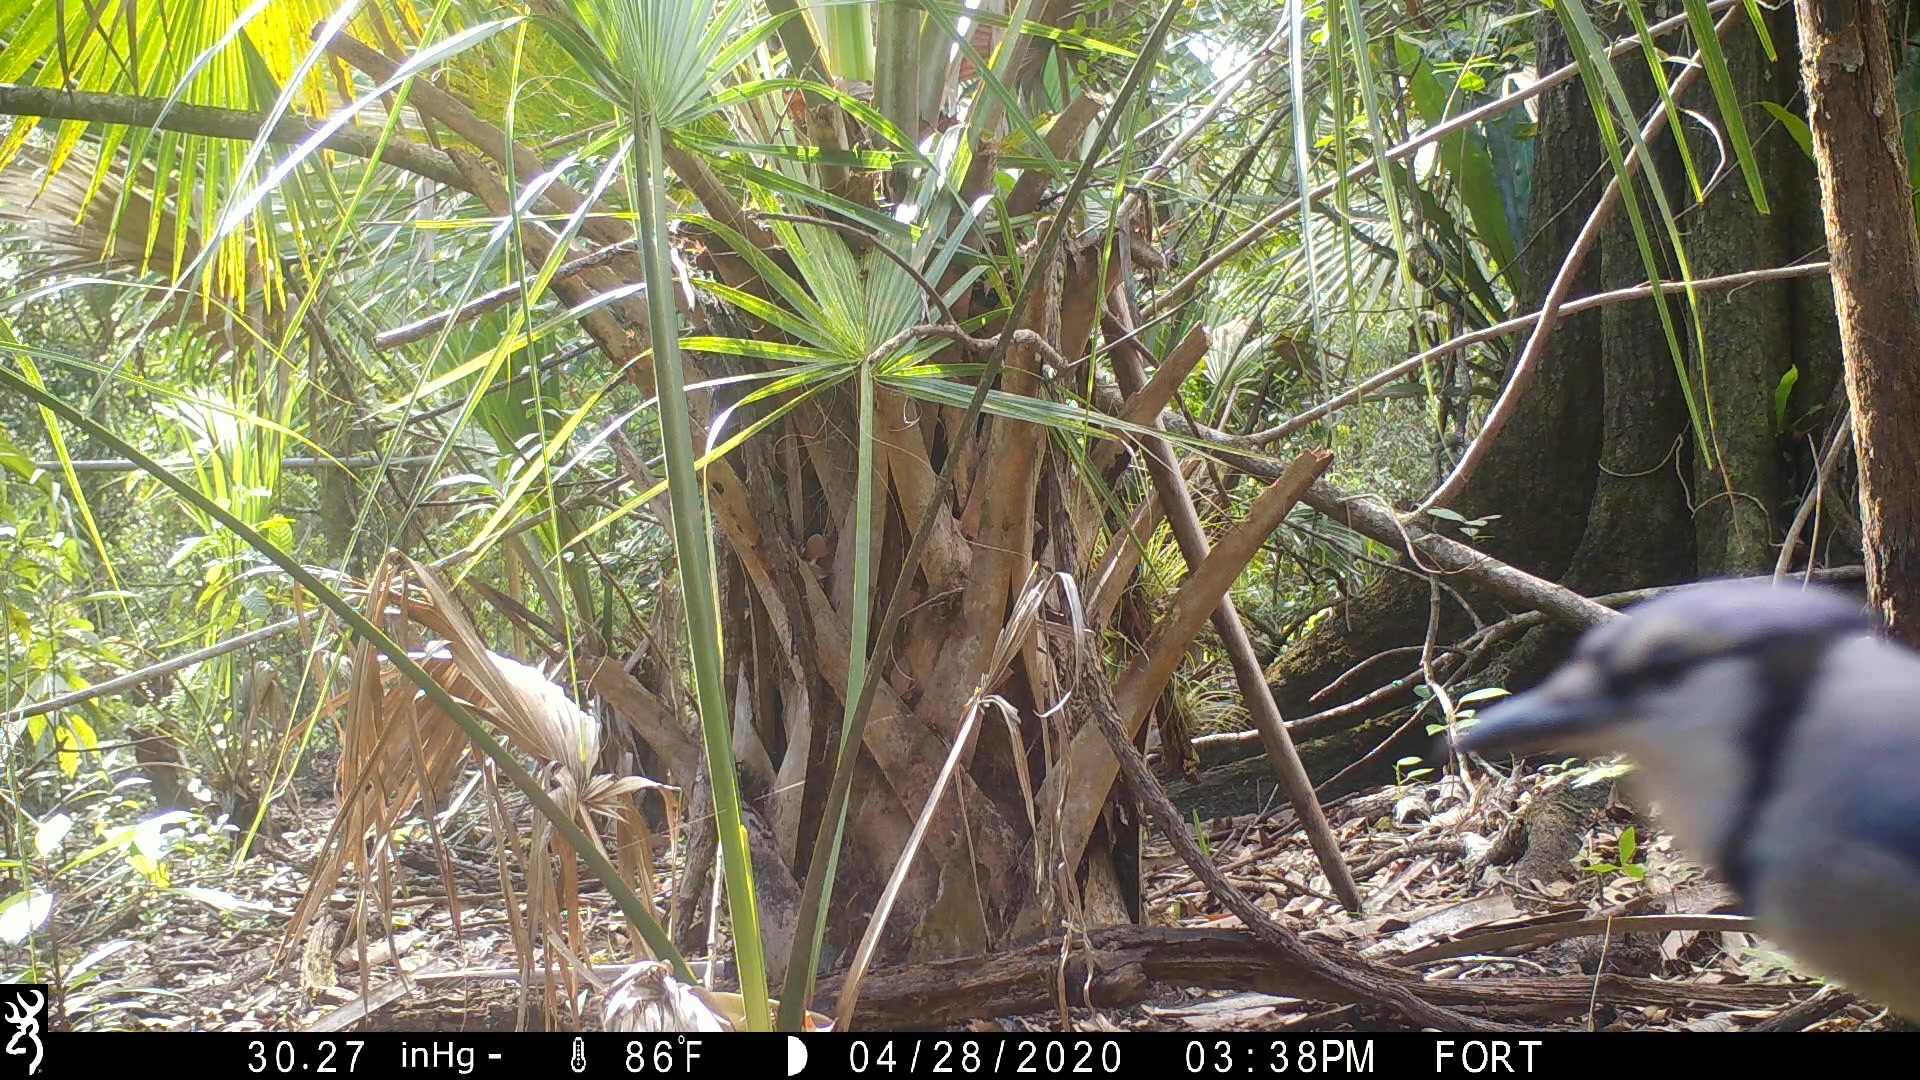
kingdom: Animalia
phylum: Chordata
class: Aves
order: Passeriformes
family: Corvidae
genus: Cyanocitta
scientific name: Cyanocitta cristata
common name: Blue jay
